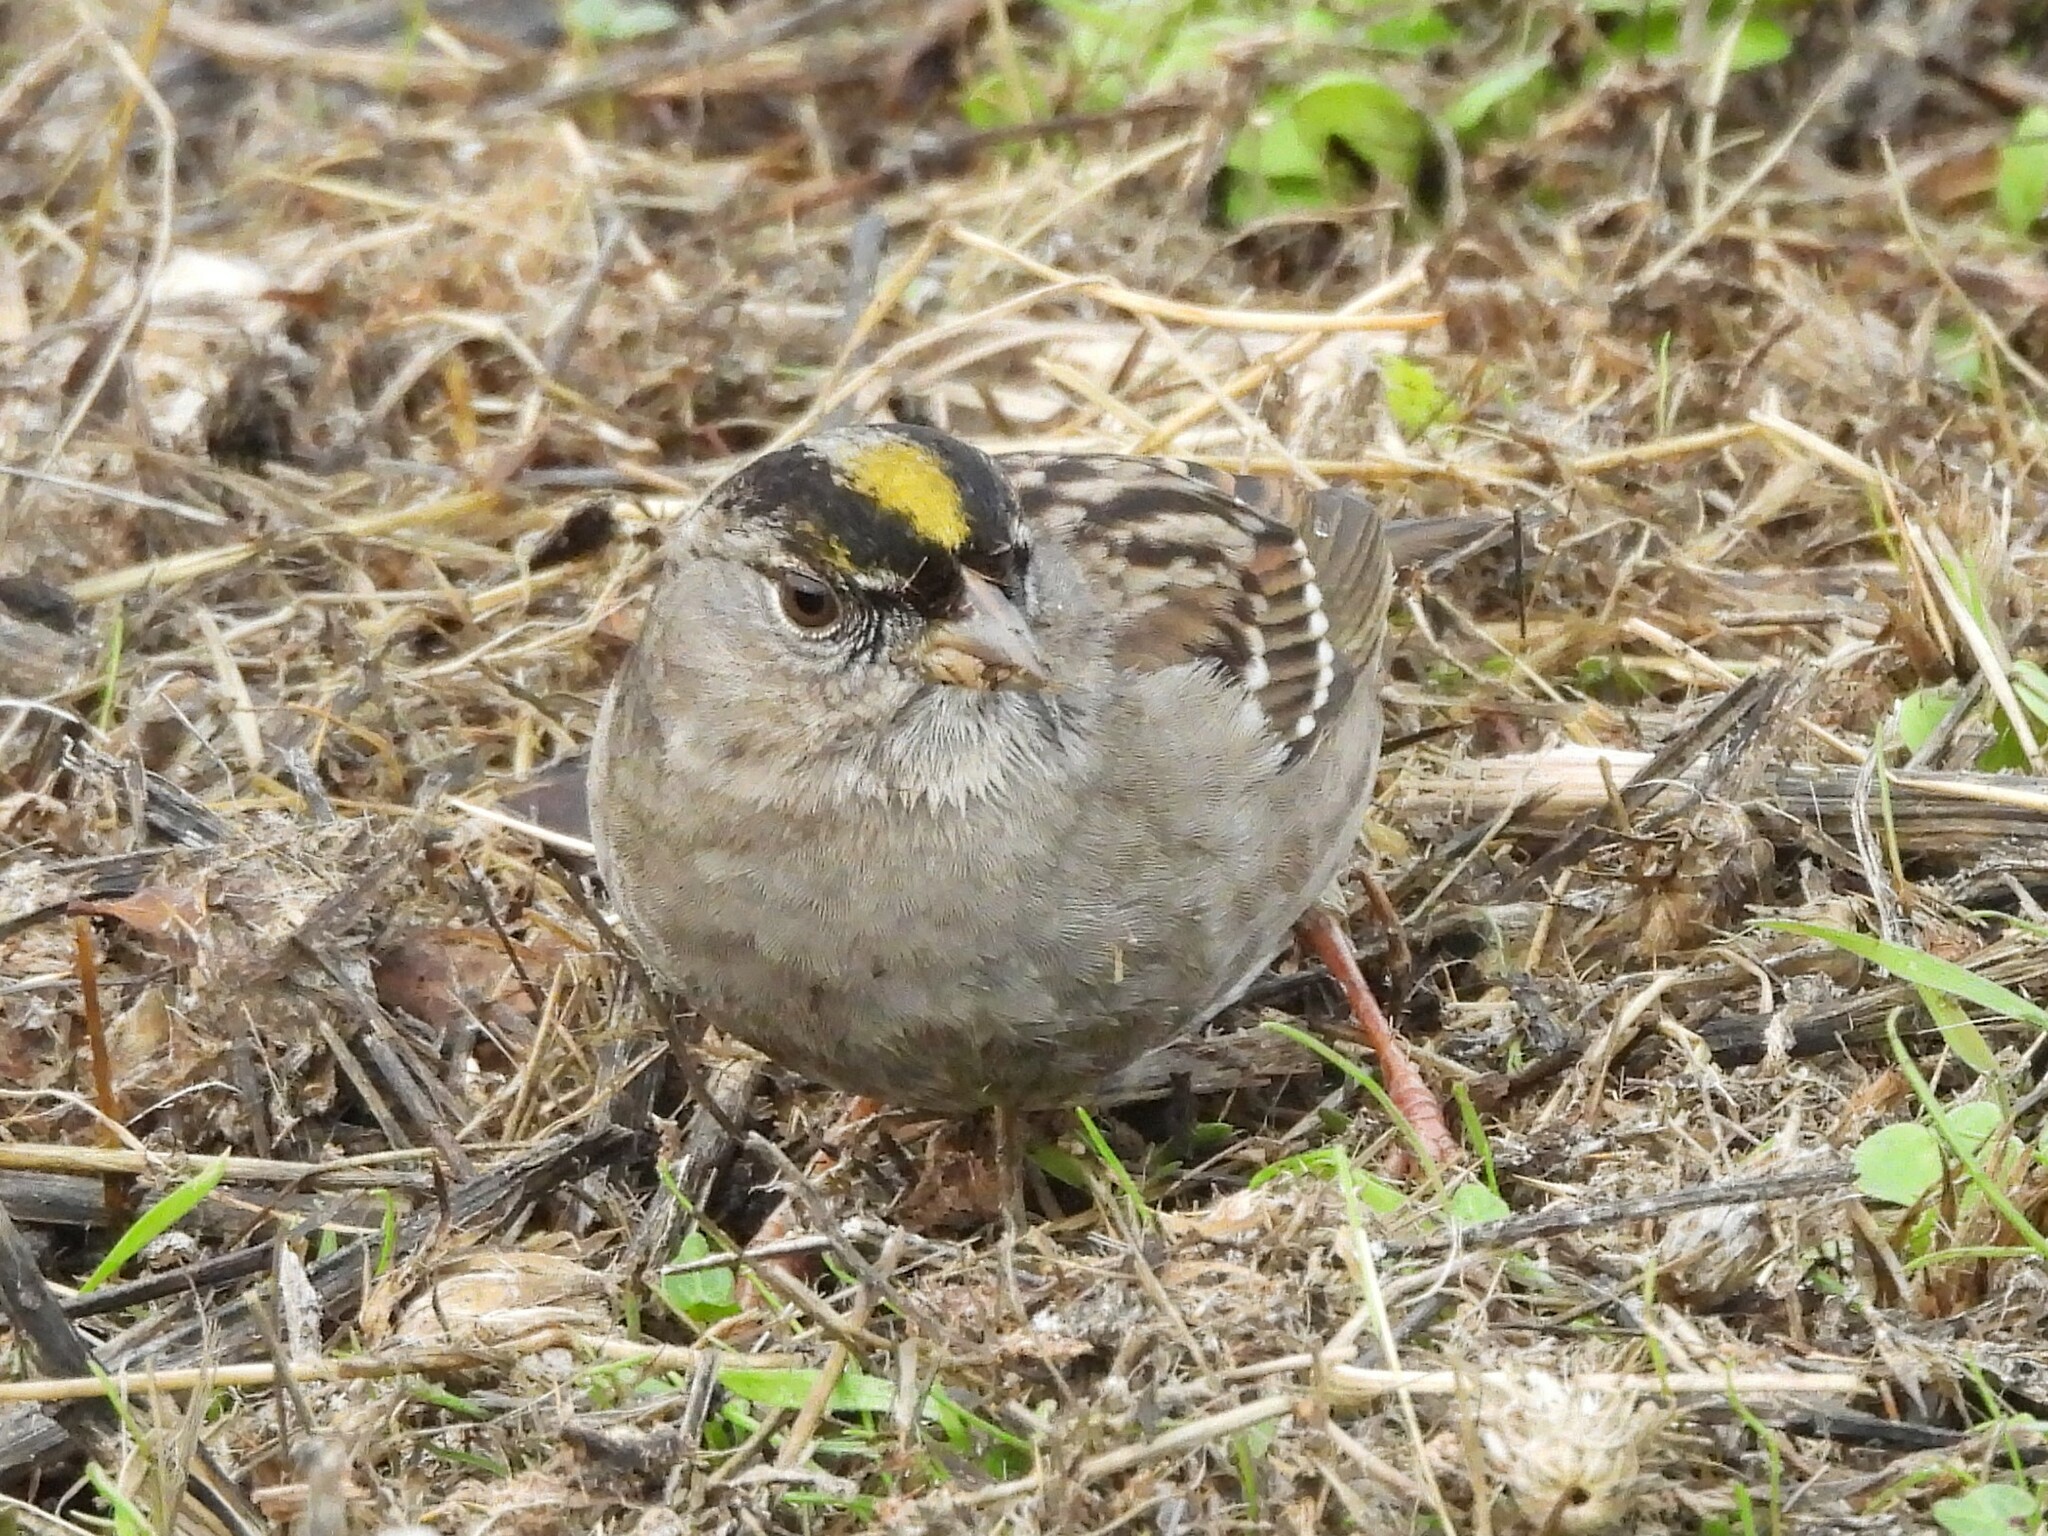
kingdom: Animalia
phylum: Chordata
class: Aves
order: Passeriformes
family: Passerellidae
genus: Zonotrichia
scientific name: Zonotrichia atricapilla
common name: Golden-crowned sparrow
